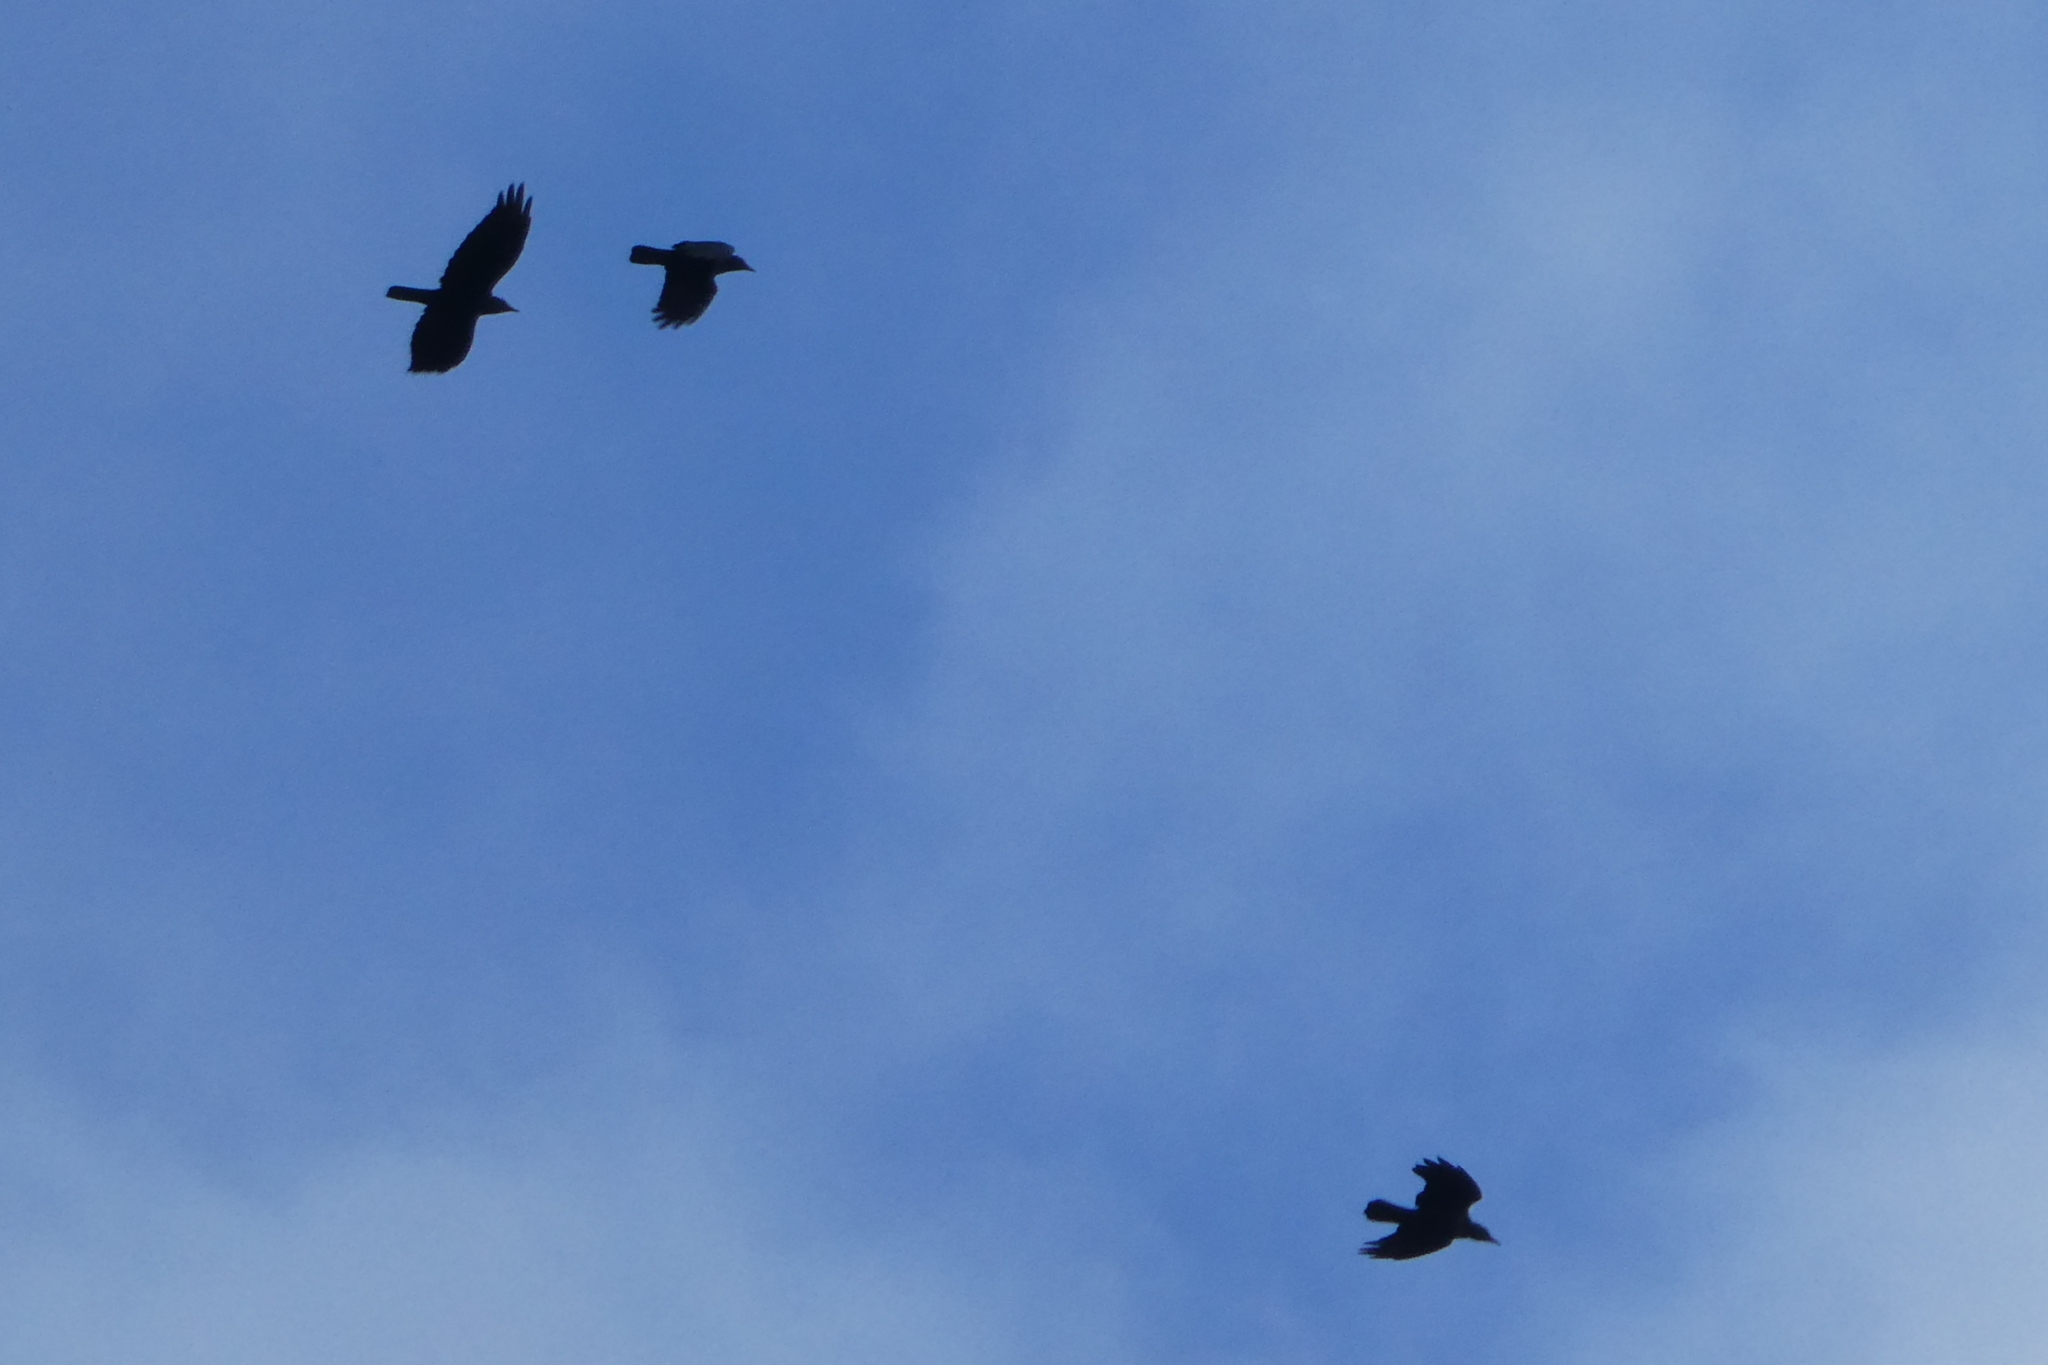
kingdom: Animalia
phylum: Chordata
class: Aves
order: Passeriformes
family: Corvidae
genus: Corvus
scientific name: Corvus brachyrhynchos
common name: American crow
